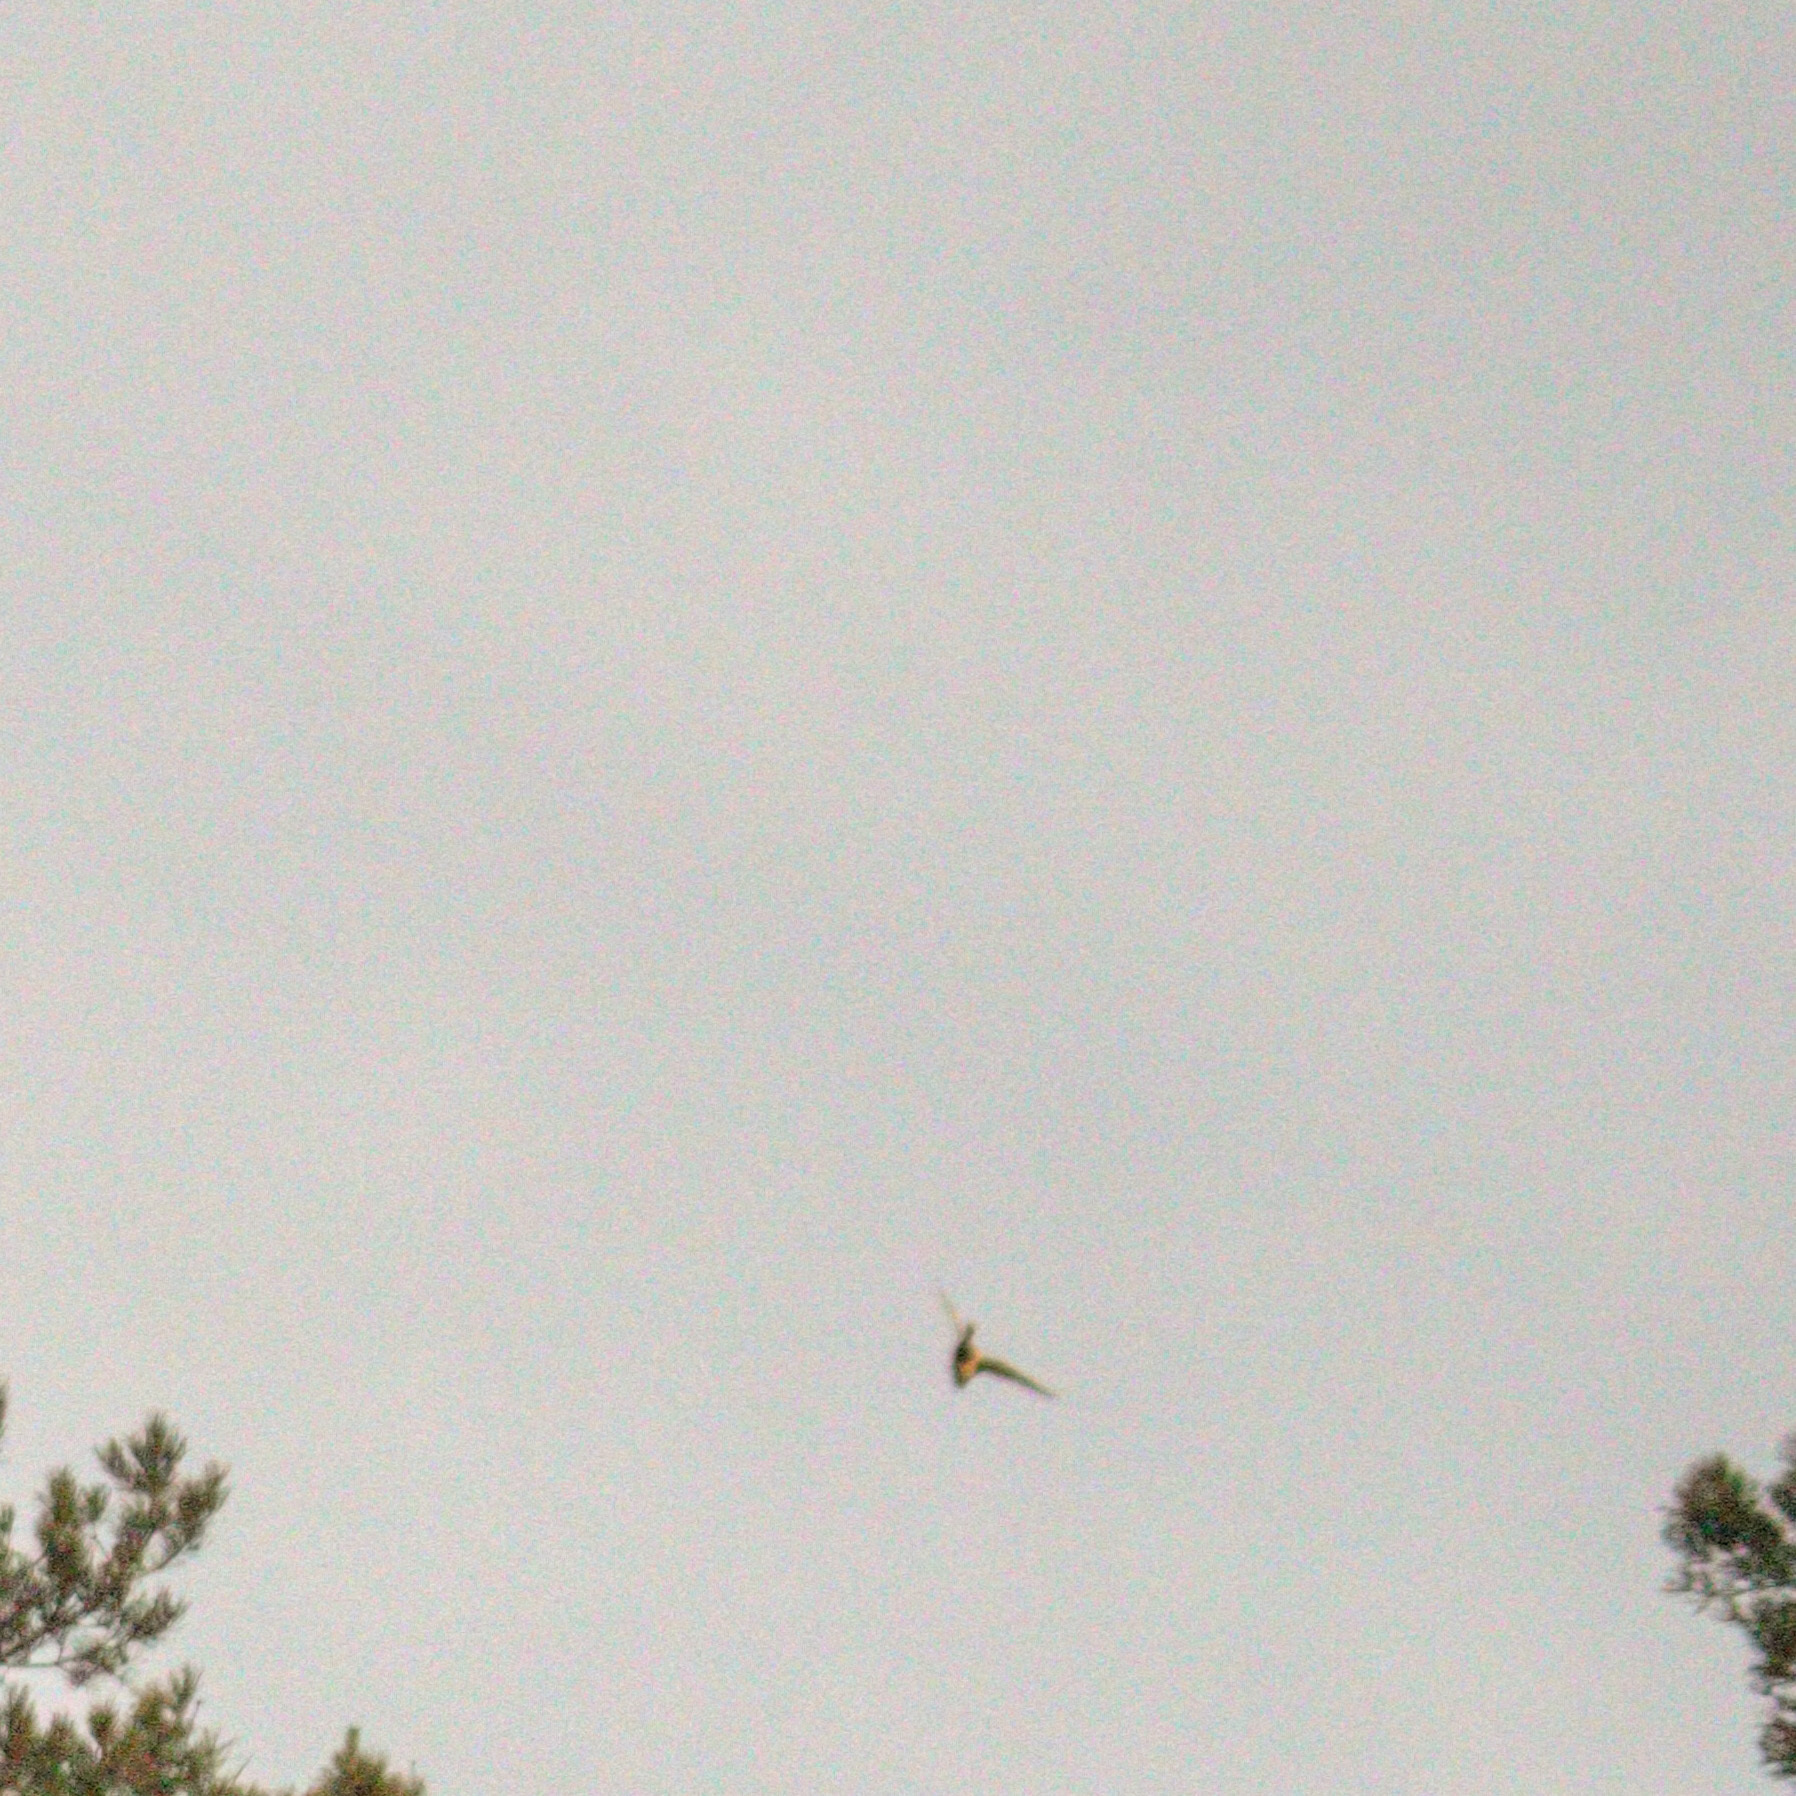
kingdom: Animalia
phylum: Chordata
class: Aves
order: Anseriformes
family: Anatidae
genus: Anas
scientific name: Anas platyrhynchos
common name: Mallard
